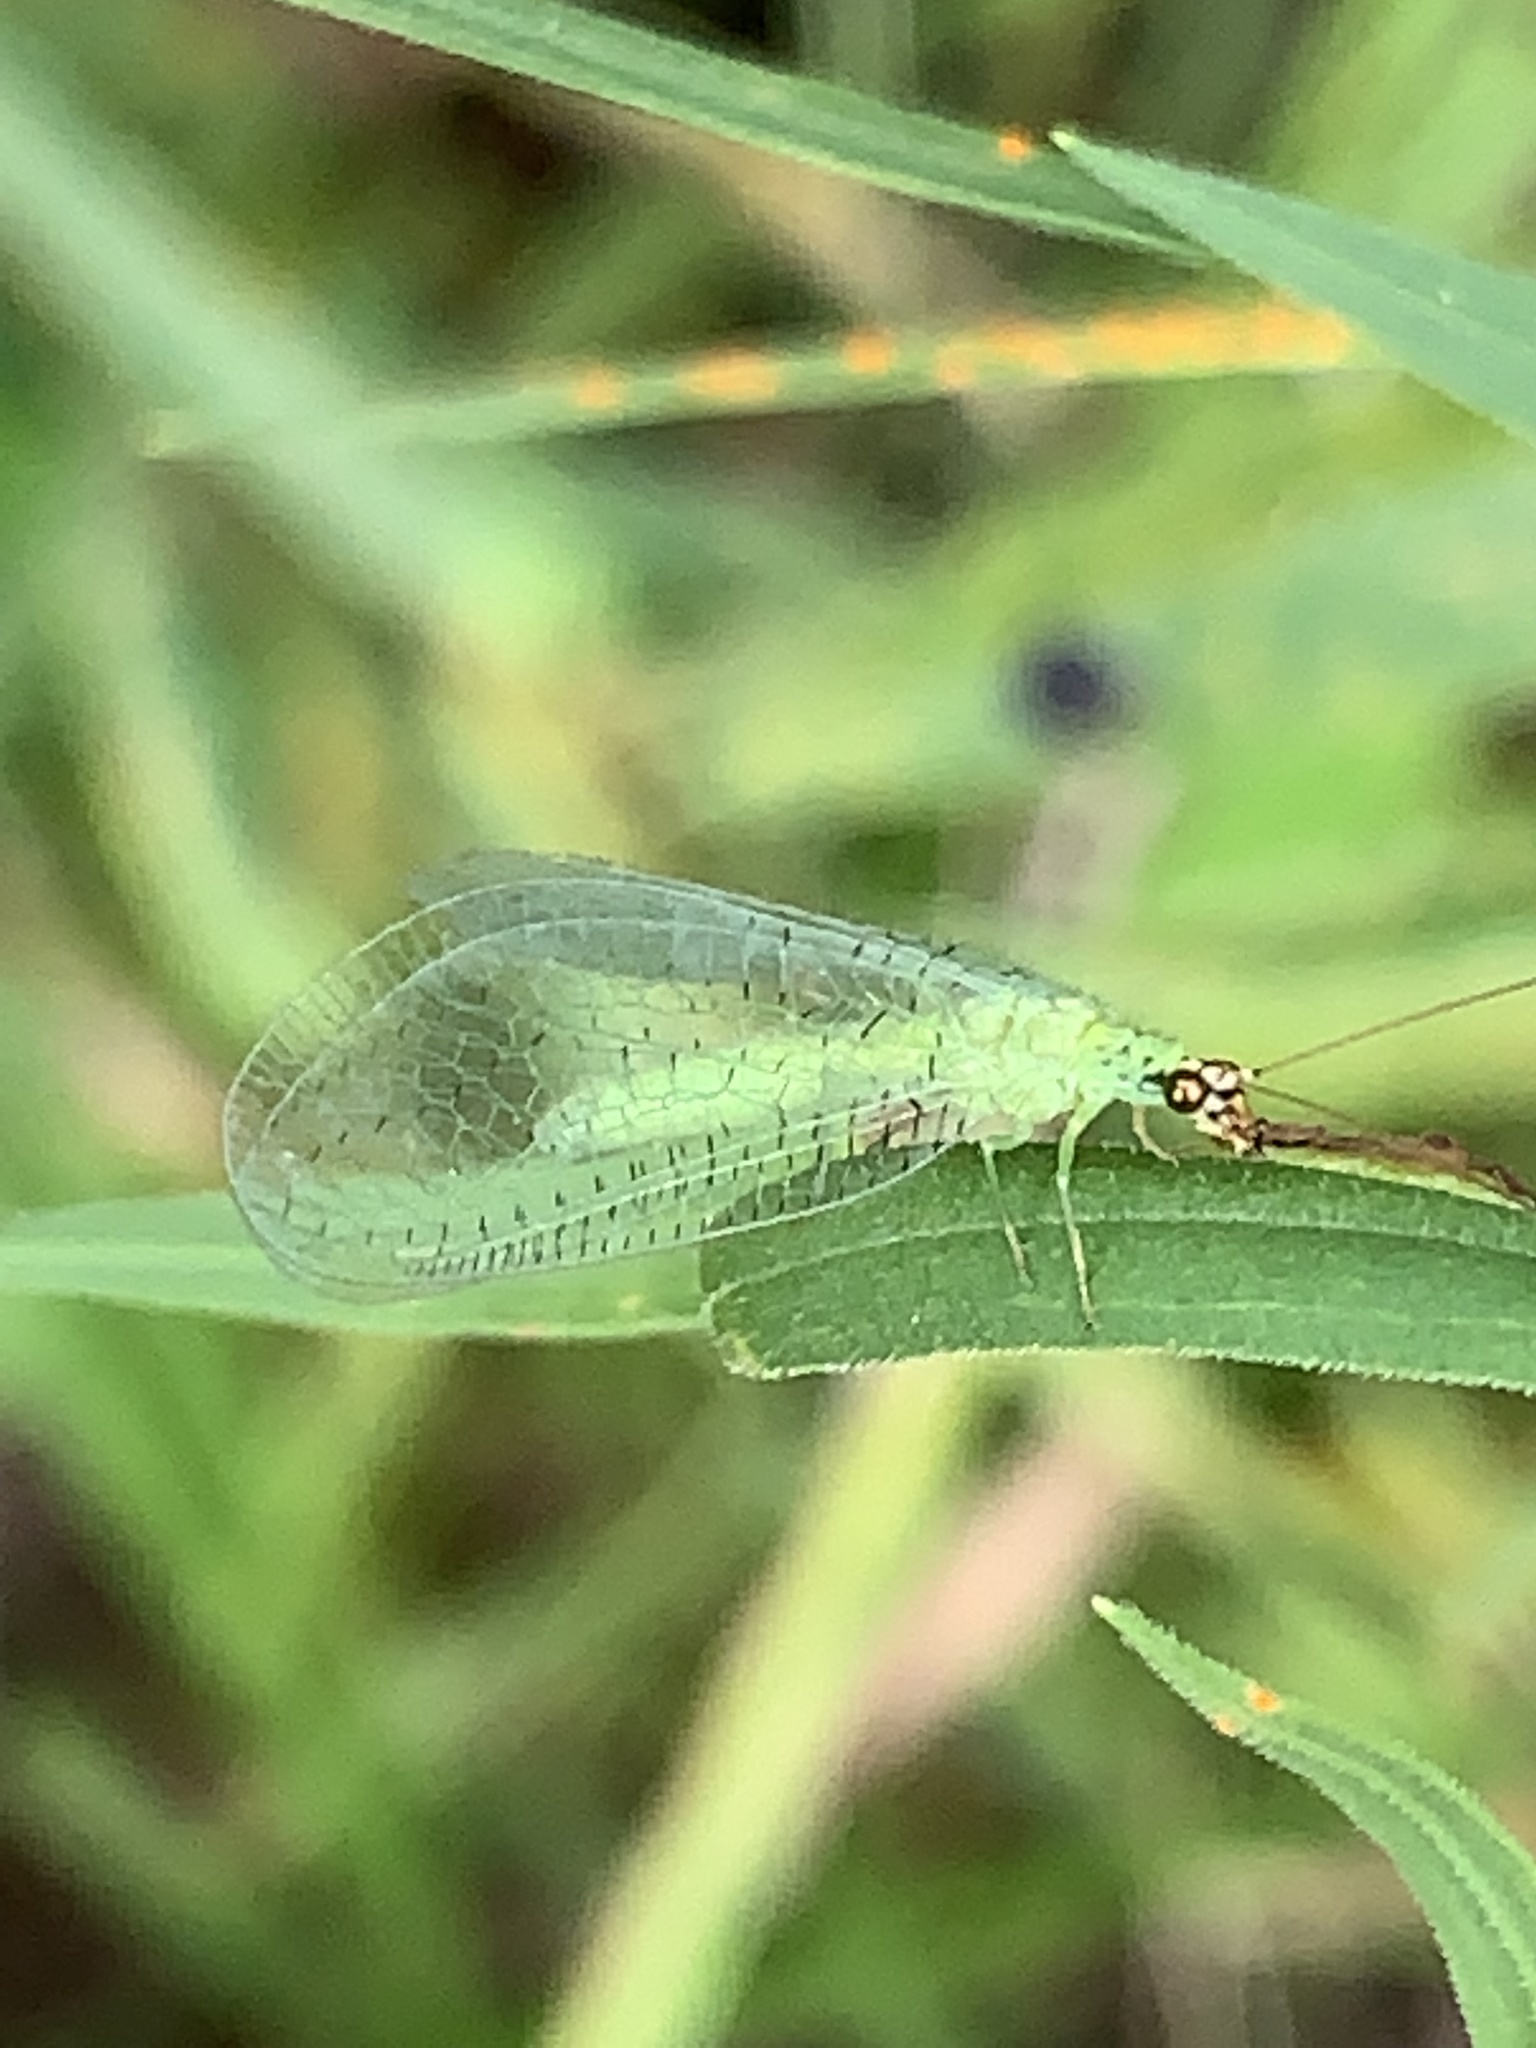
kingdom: Animalia
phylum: Arthropoda
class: Insecta
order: Neuroptera
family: Chrysopidae
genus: Chrysopa
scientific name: Chrysopa oculata
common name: Golden-eyed lacewing
